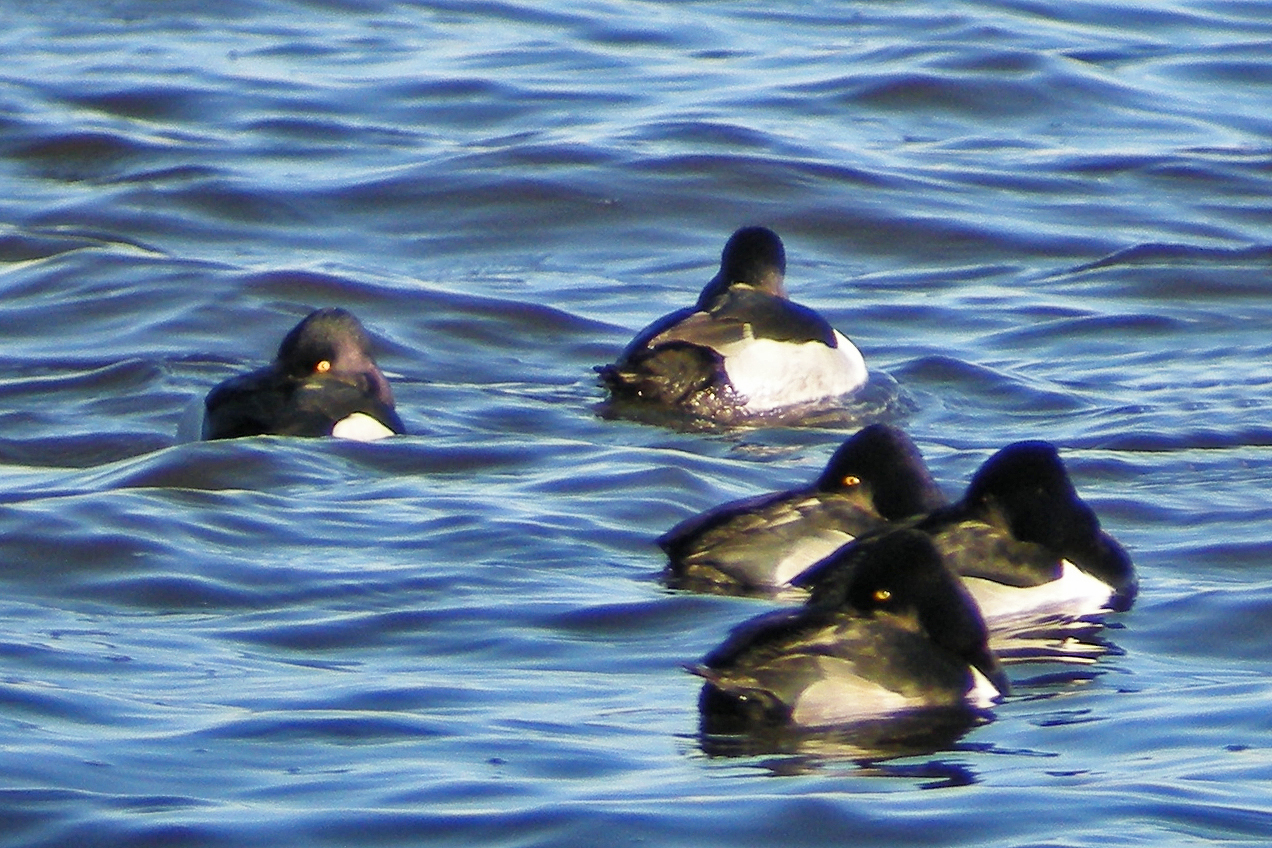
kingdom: Animalia
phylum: Chordata
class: Aves
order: Anseriformes
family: Anatidae
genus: Aythya
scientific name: Aythya collaris
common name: Ring-necked duck
